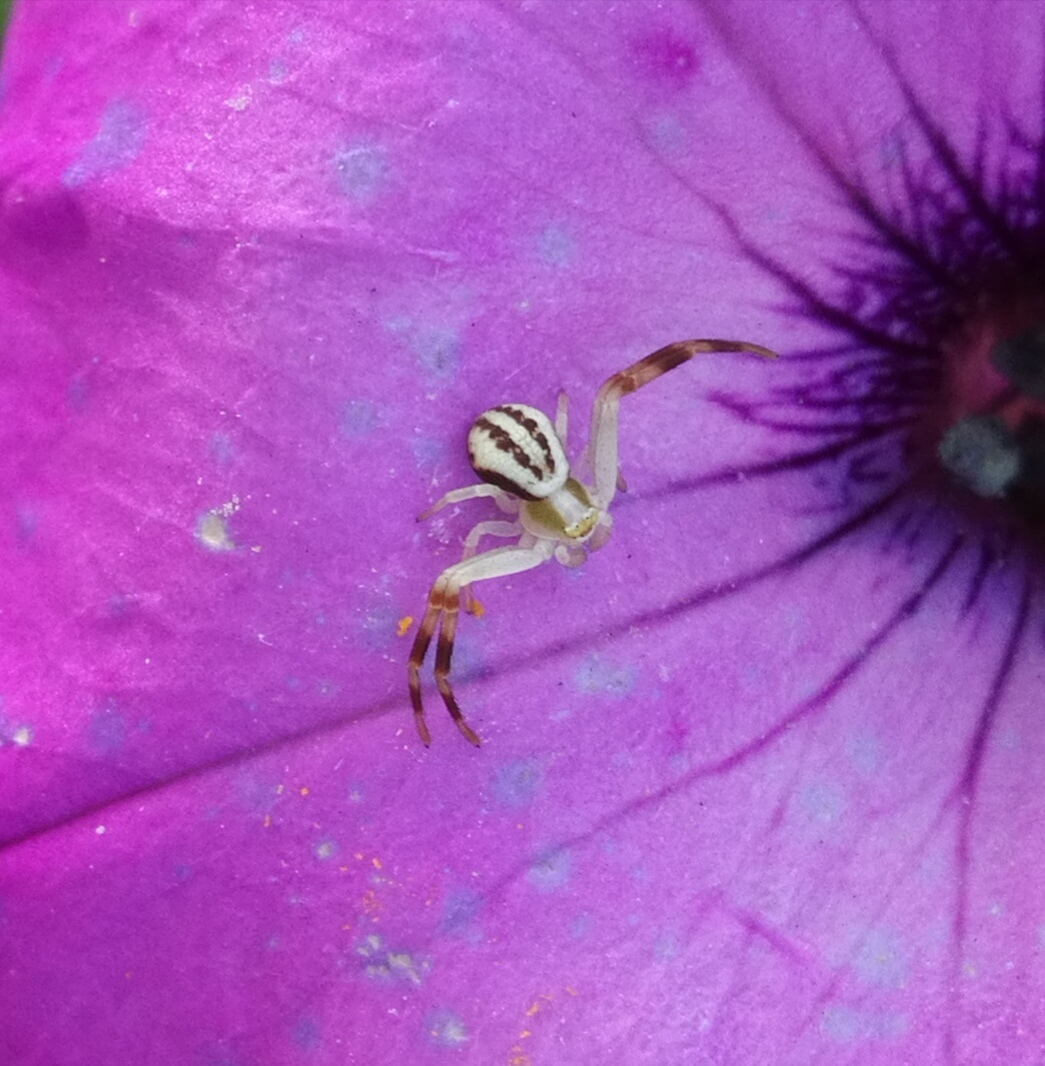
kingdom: Animalia
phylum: Arthropoda
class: Arachnida
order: Araneae
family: Thomisidae
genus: Misumena
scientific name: Misumena vatia
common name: Goldenrod crab spider
